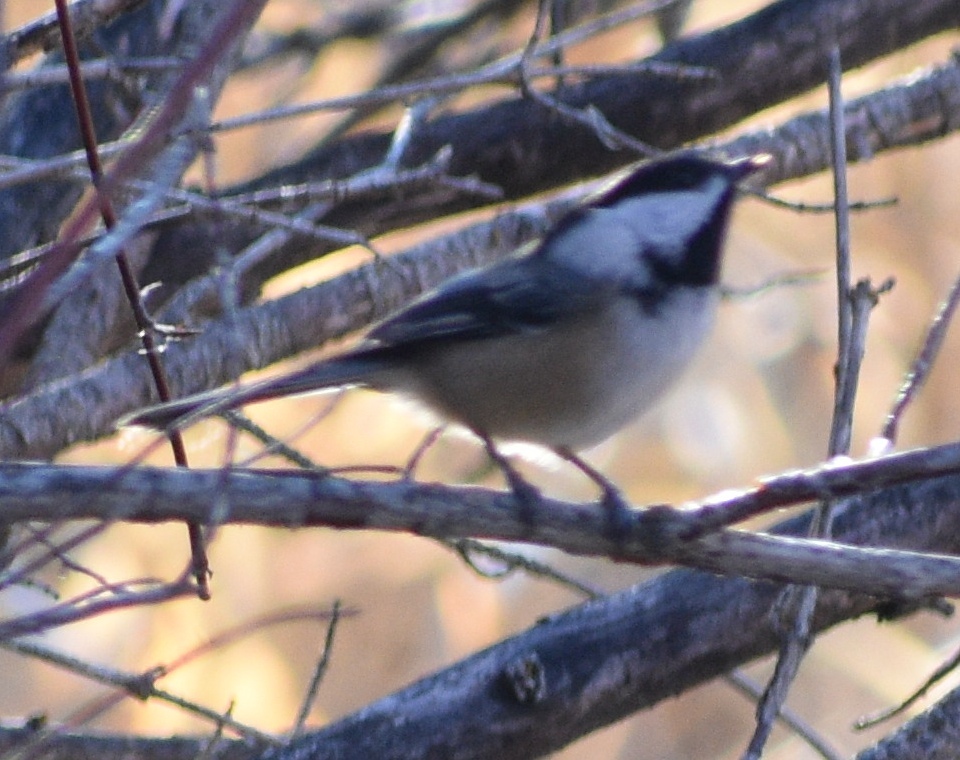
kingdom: Animalia
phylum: Chordata
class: Aves
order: Passeriformes
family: Paridae
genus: Poecile
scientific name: Poecile atricapillus
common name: Black-capped chickadee
